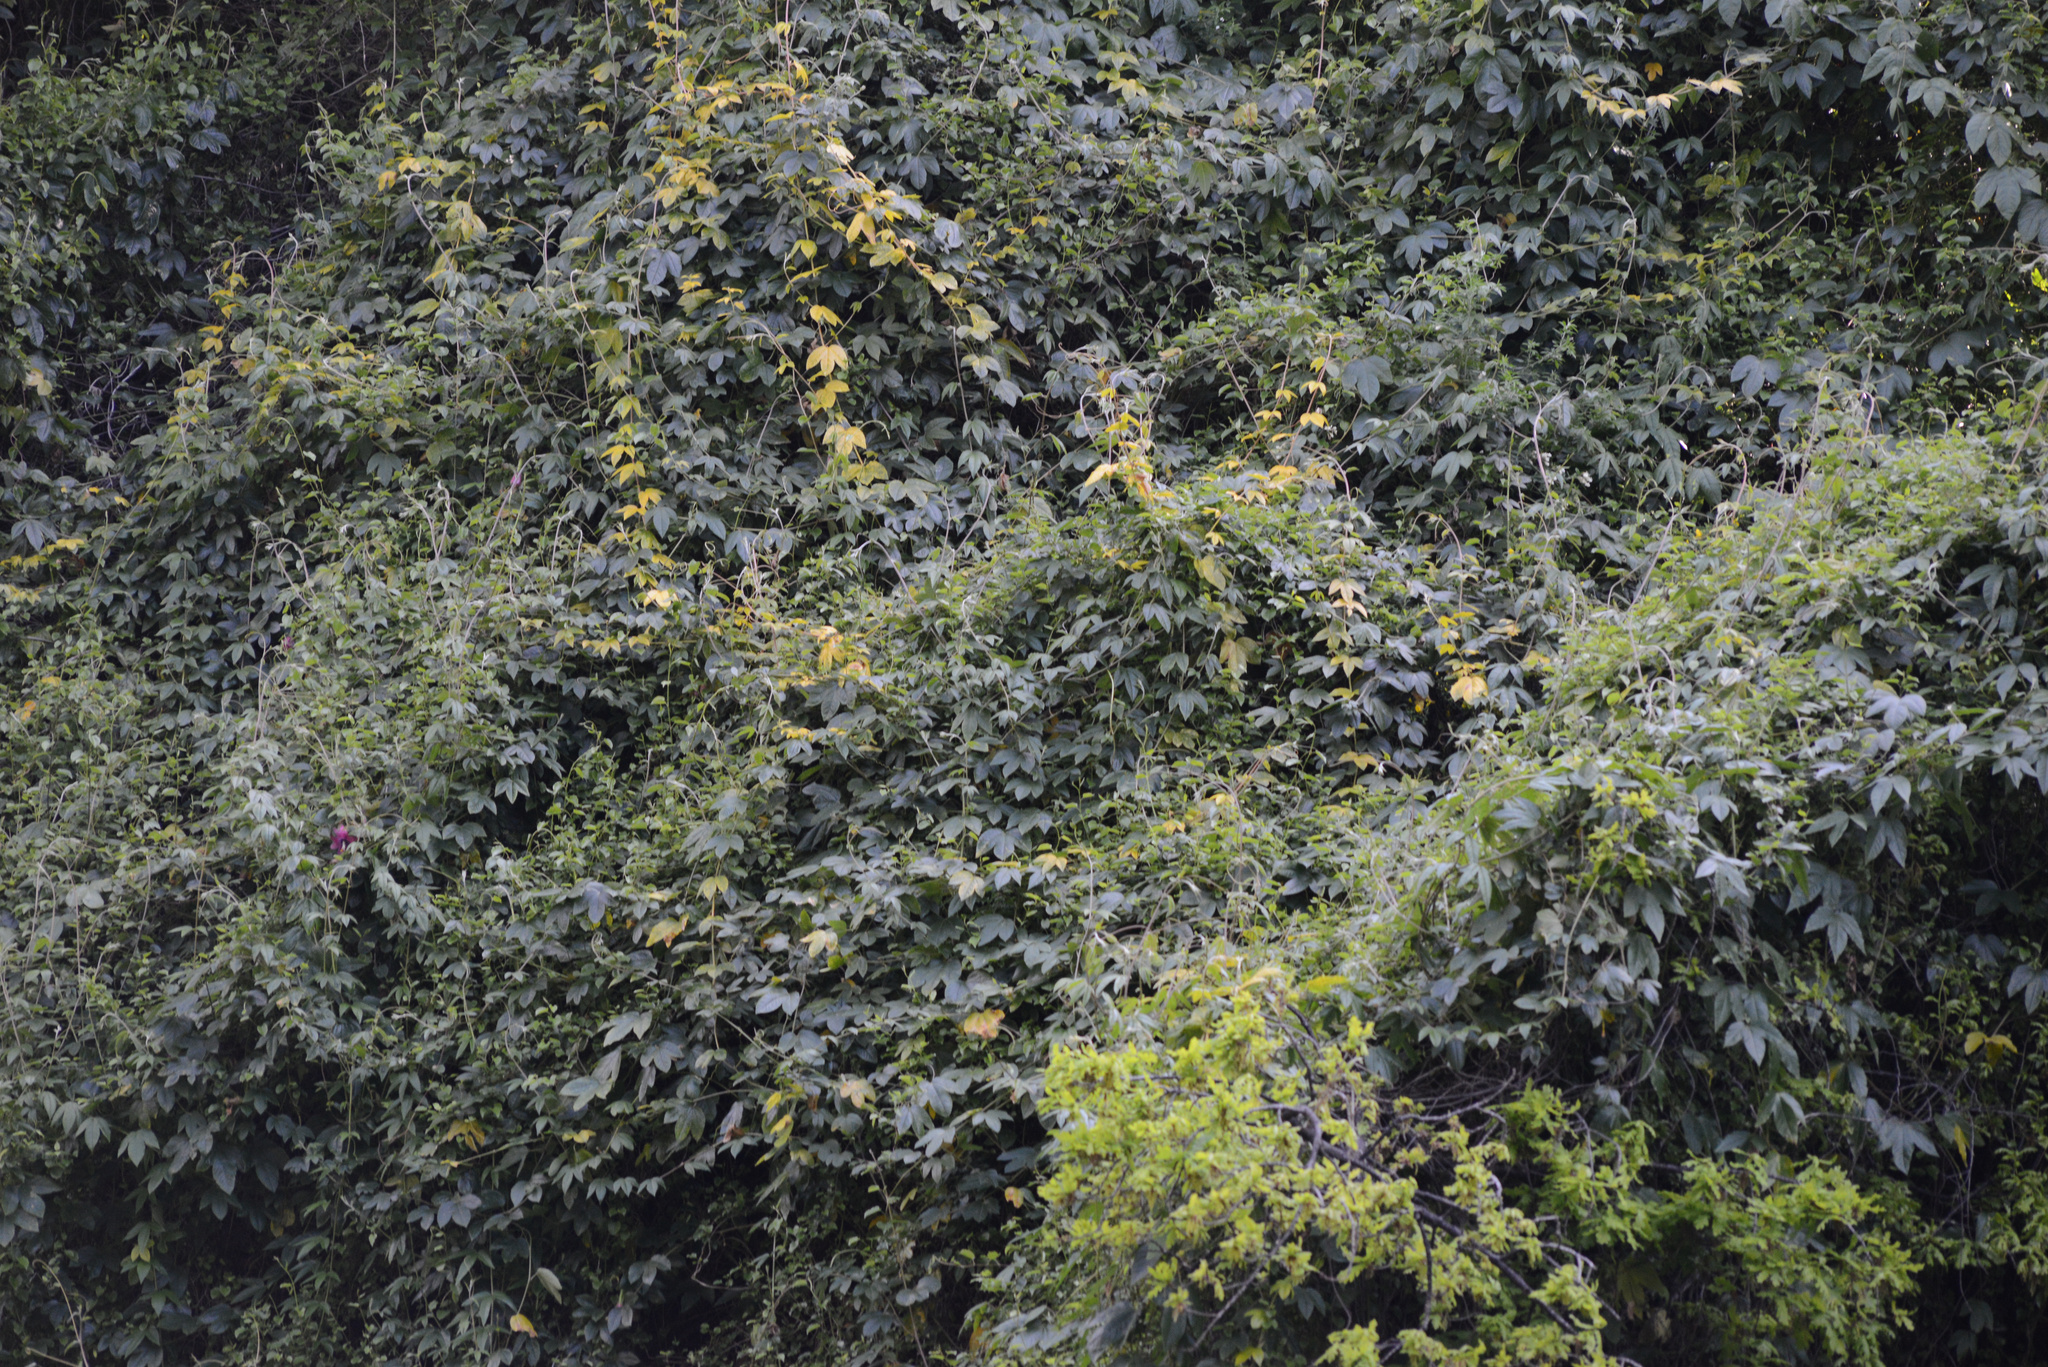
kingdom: Plantae
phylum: Tracheophyta
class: Magnoliopsida
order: Malpighiales
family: Passifloraceae
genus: Passiflora
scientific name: Passiflora tripartita
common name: Banana poka
